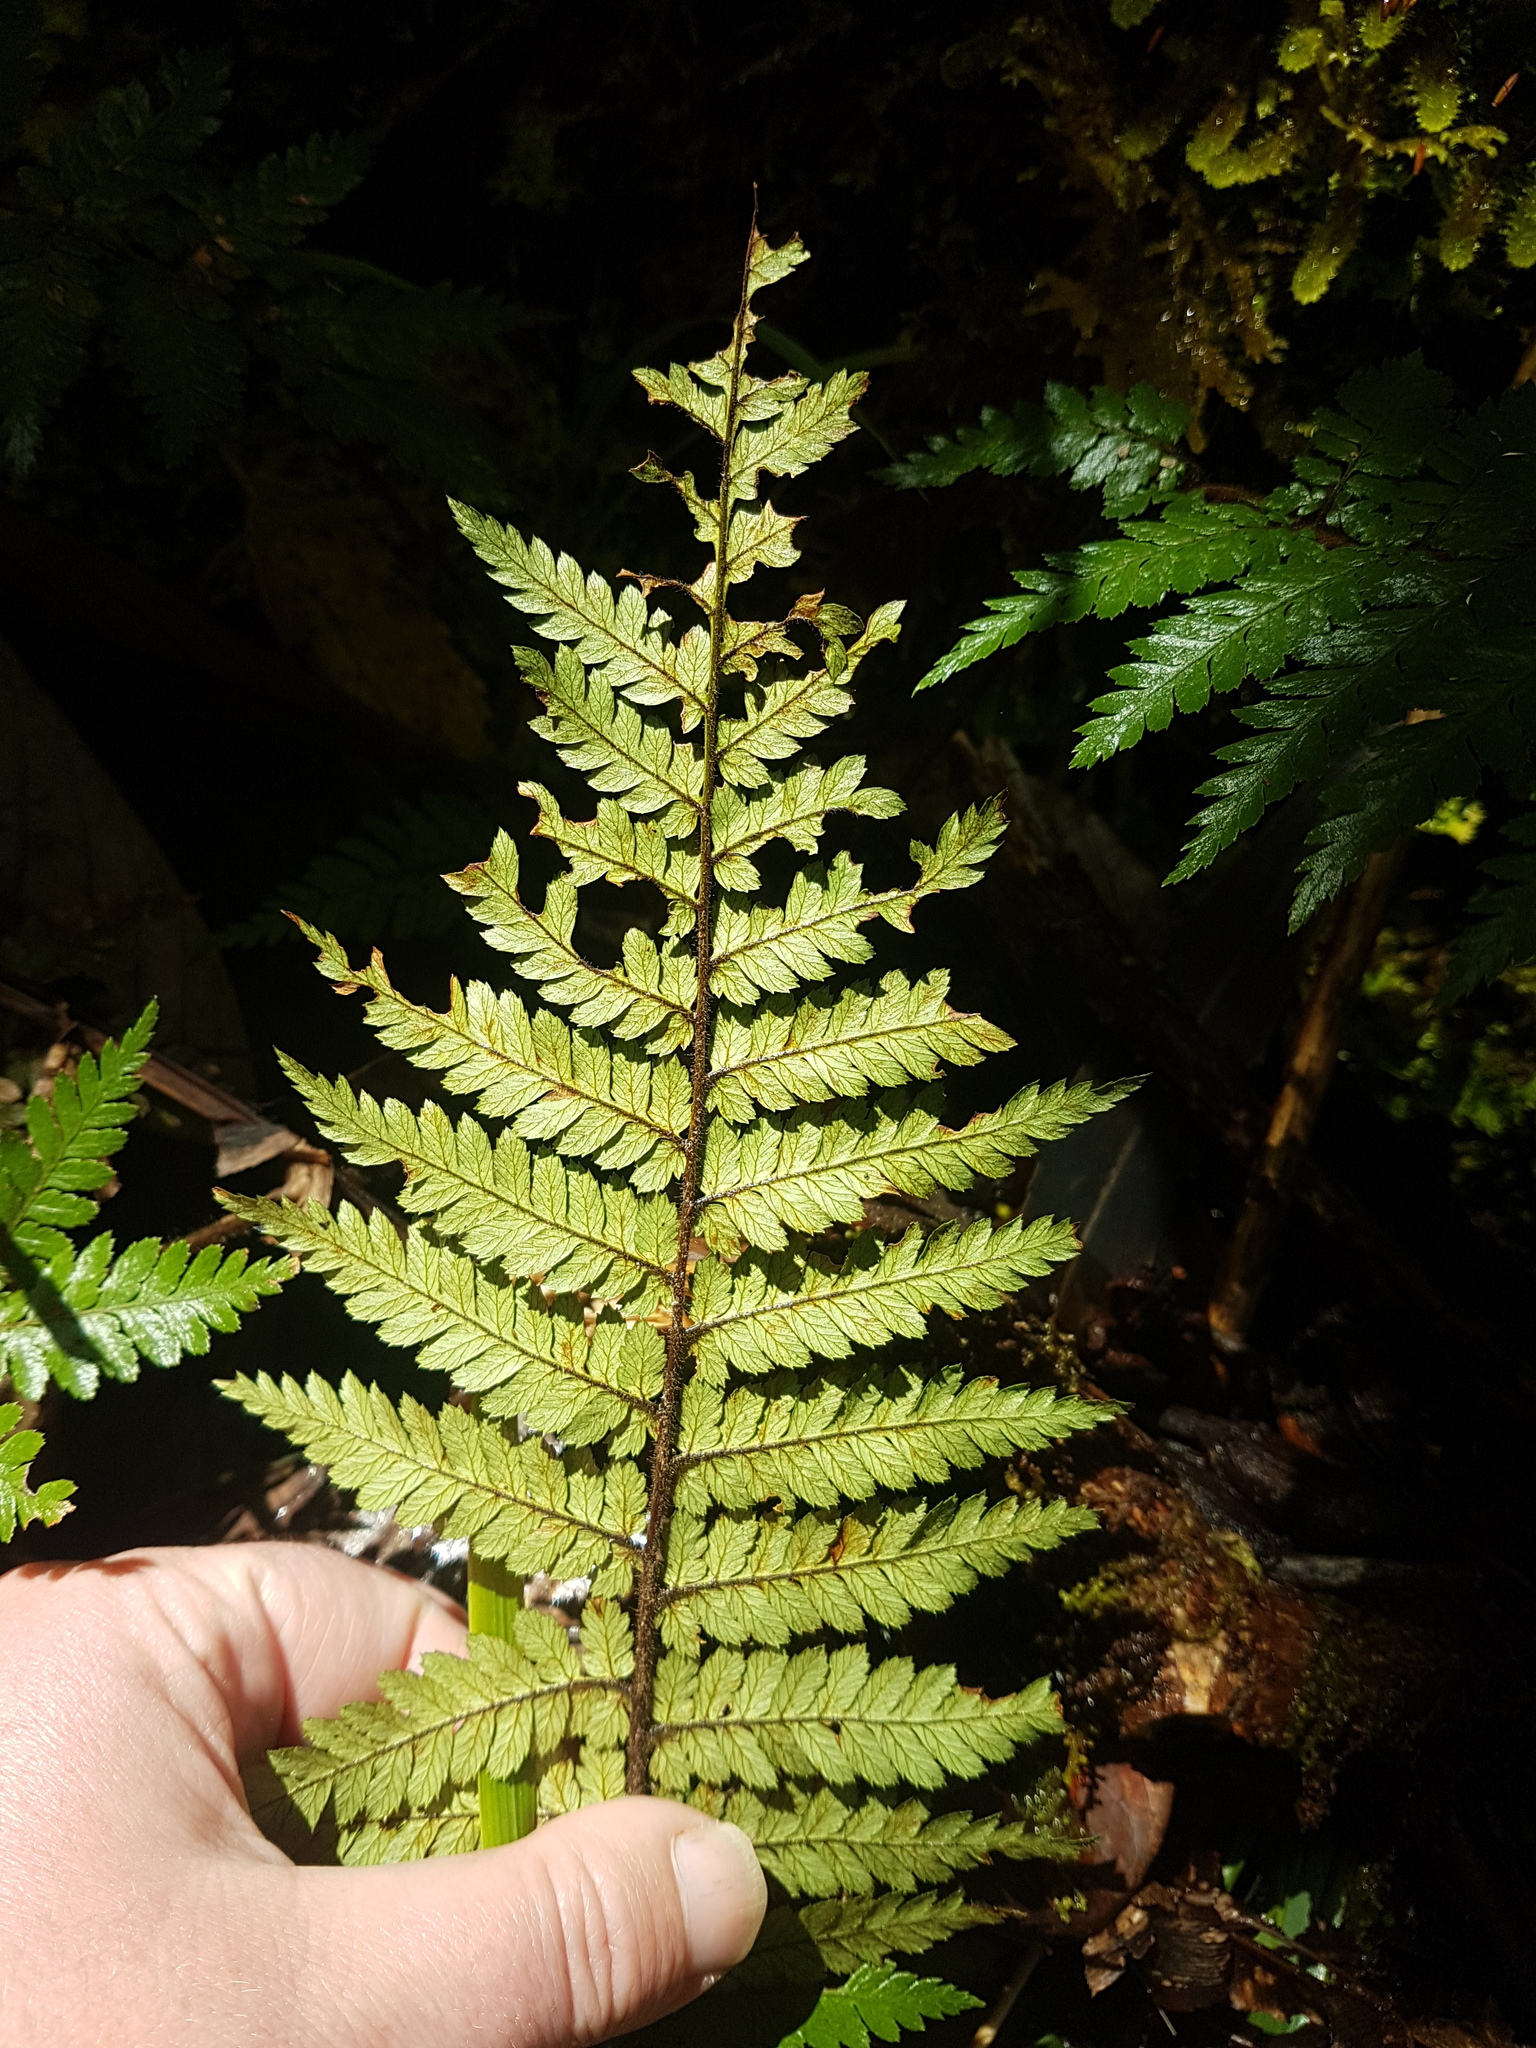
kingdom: Plantae
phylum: Tracheophyta
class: Polypodiopsida
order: Cyatheales
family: Dicksoniaceae
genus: Dicksonia
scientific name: Dicksonia squarrosa
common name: Hard treefern
